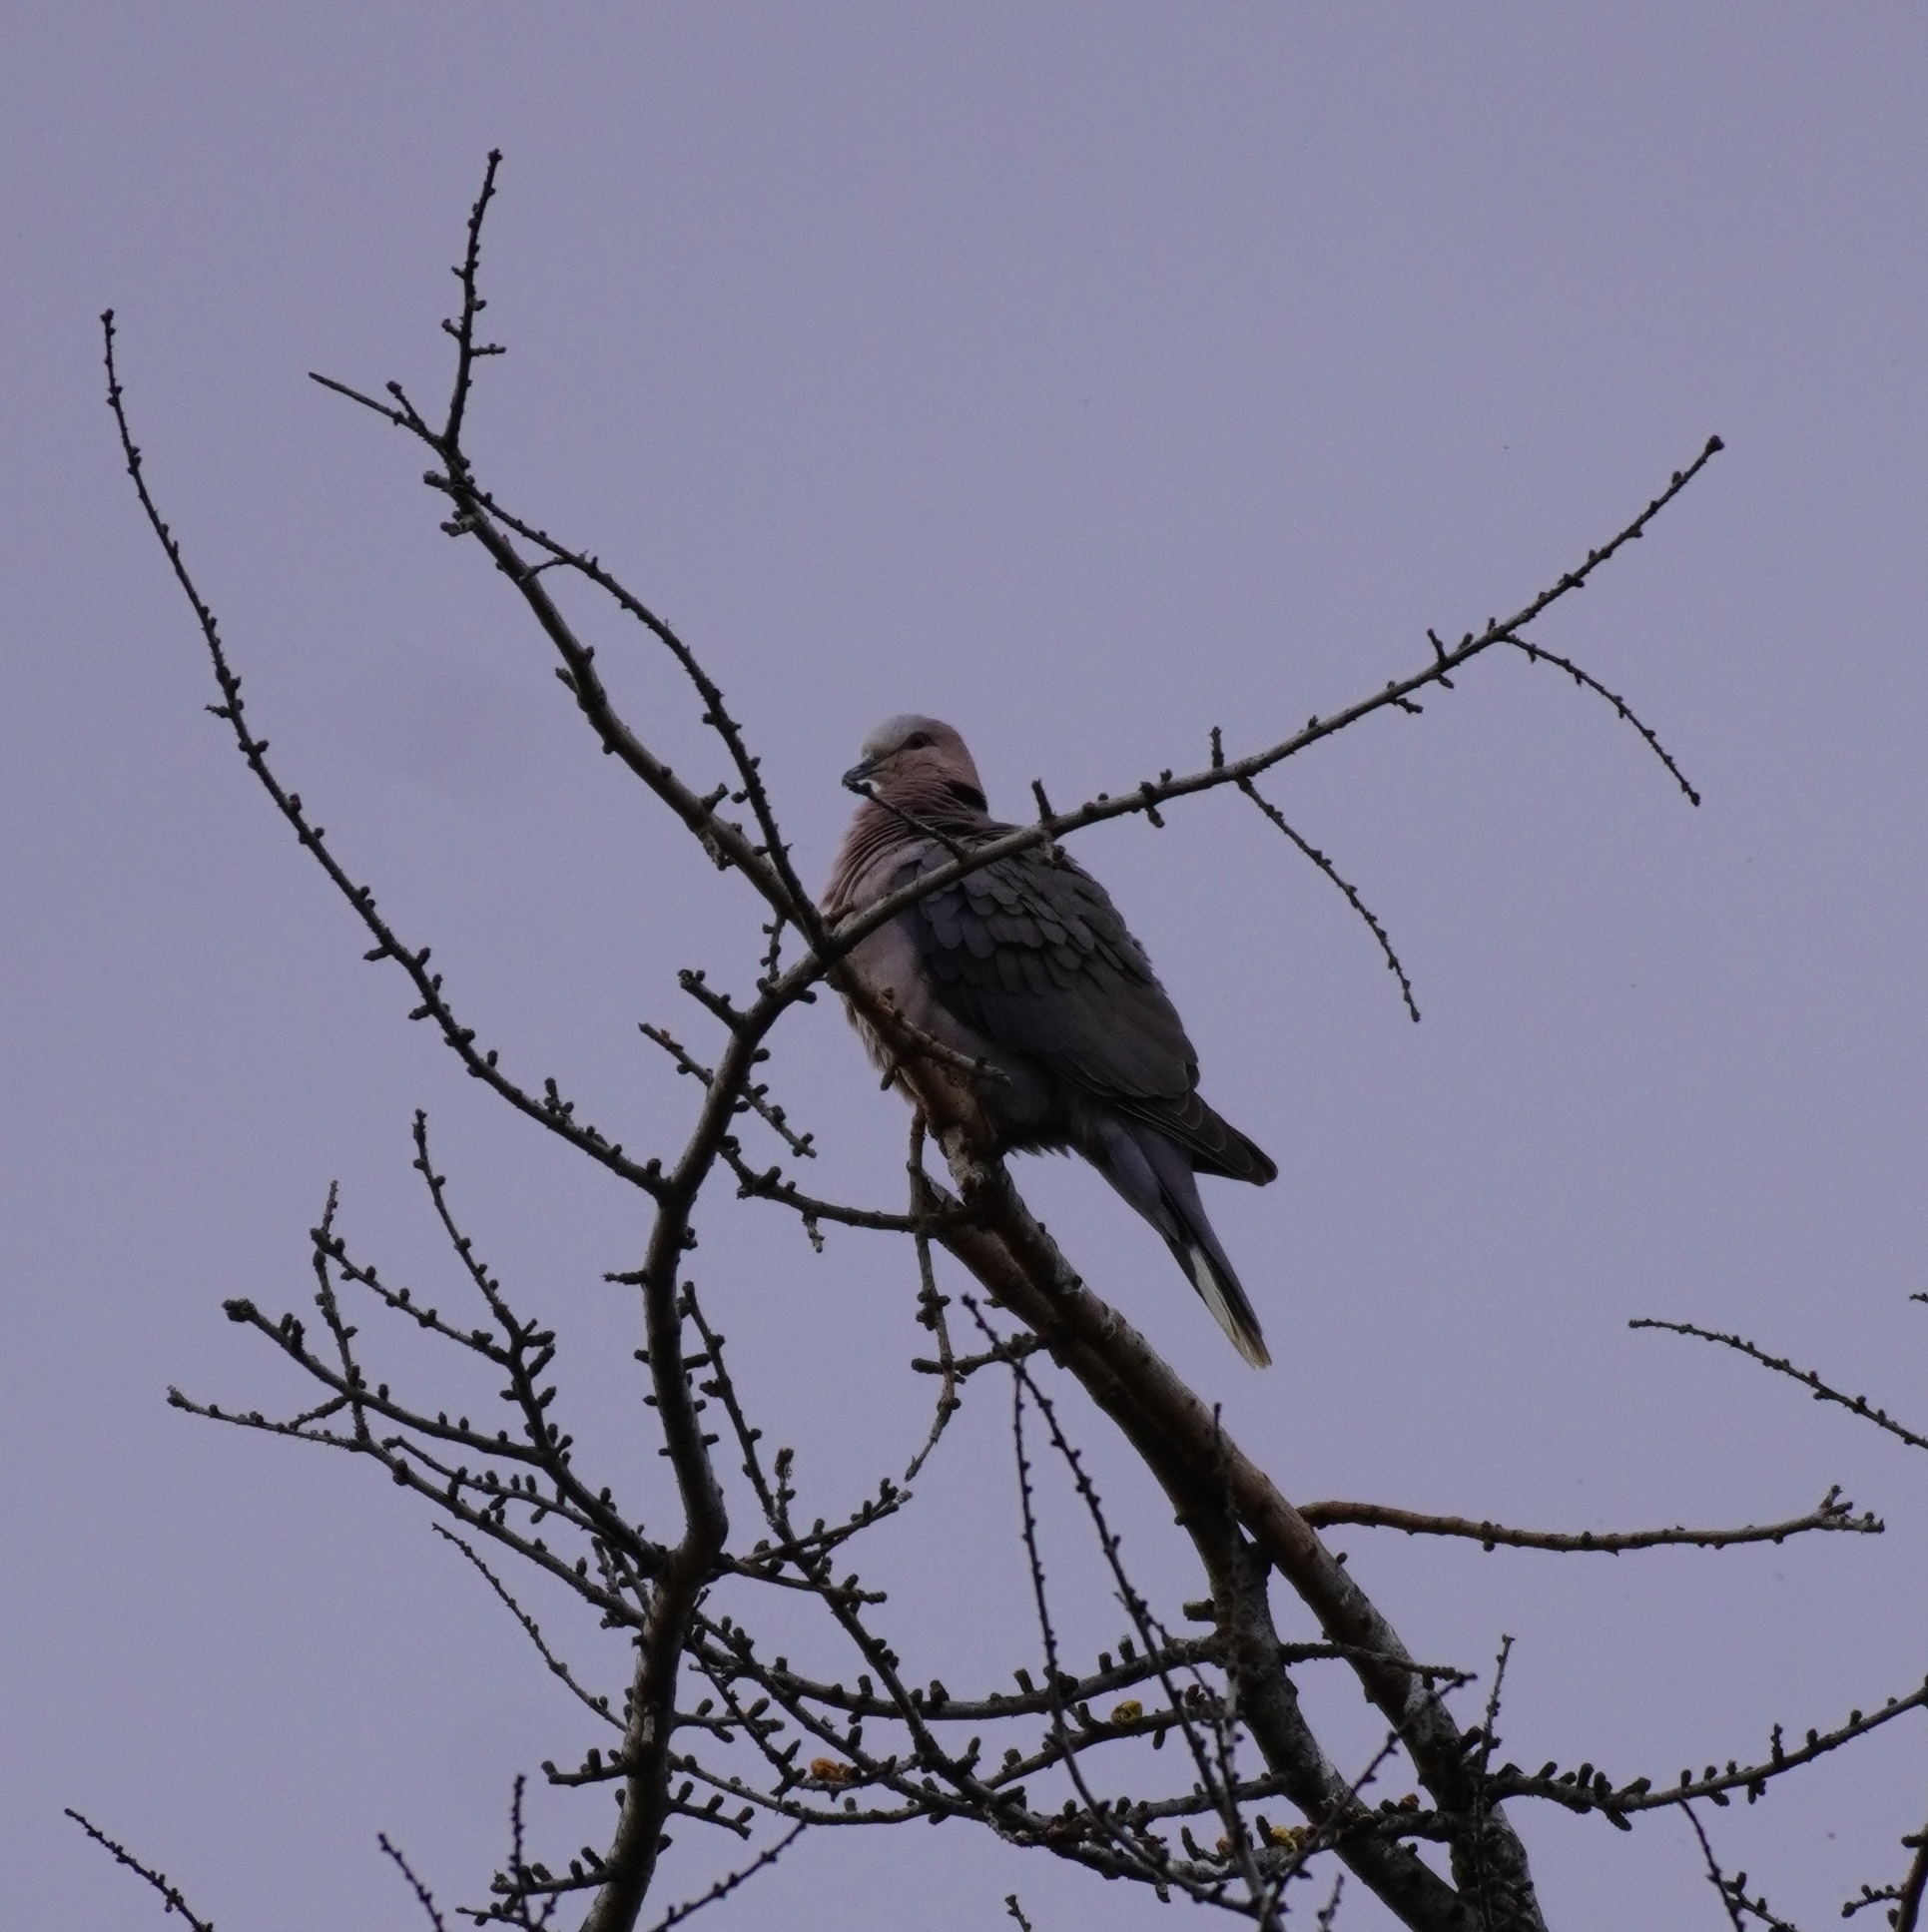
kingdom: Animalia
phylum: Chordata
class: Aves
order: Columbiformes
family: Columbidae
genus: Streptopelia
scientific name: Streptopelia semitorquata
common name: Red-eyed dove
